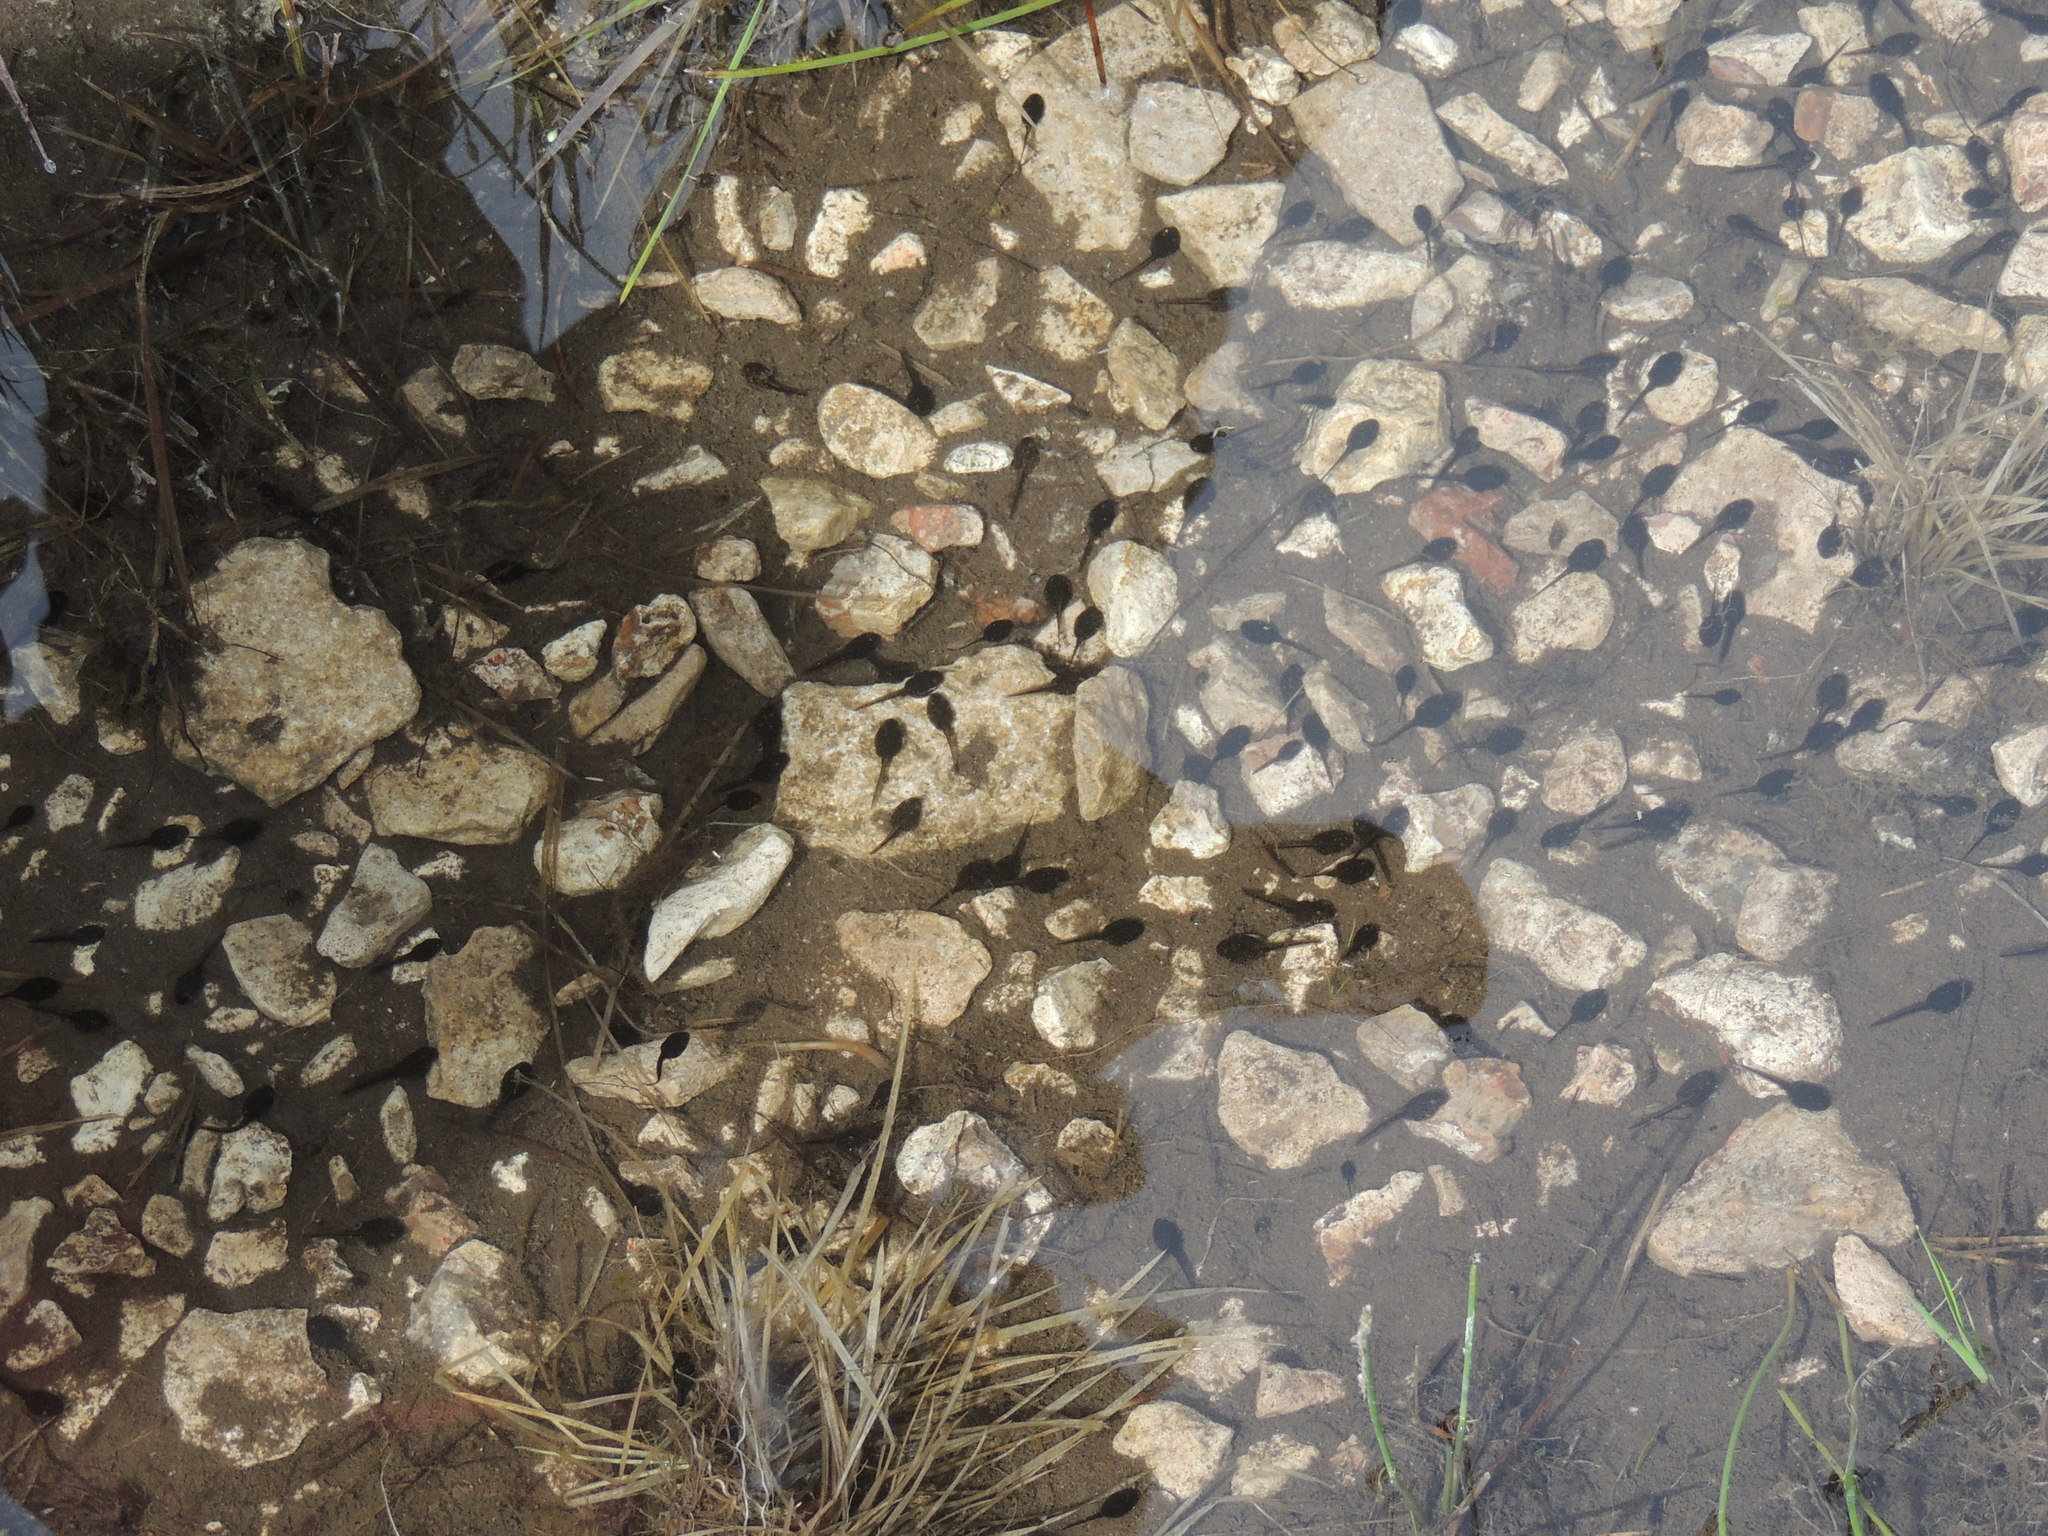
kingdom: Animalia
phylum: Chordata
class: Amphibia
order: Anura
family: Bufonidae
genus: Anaxyrus
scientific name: Anaxyrus americanus
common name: American toad
